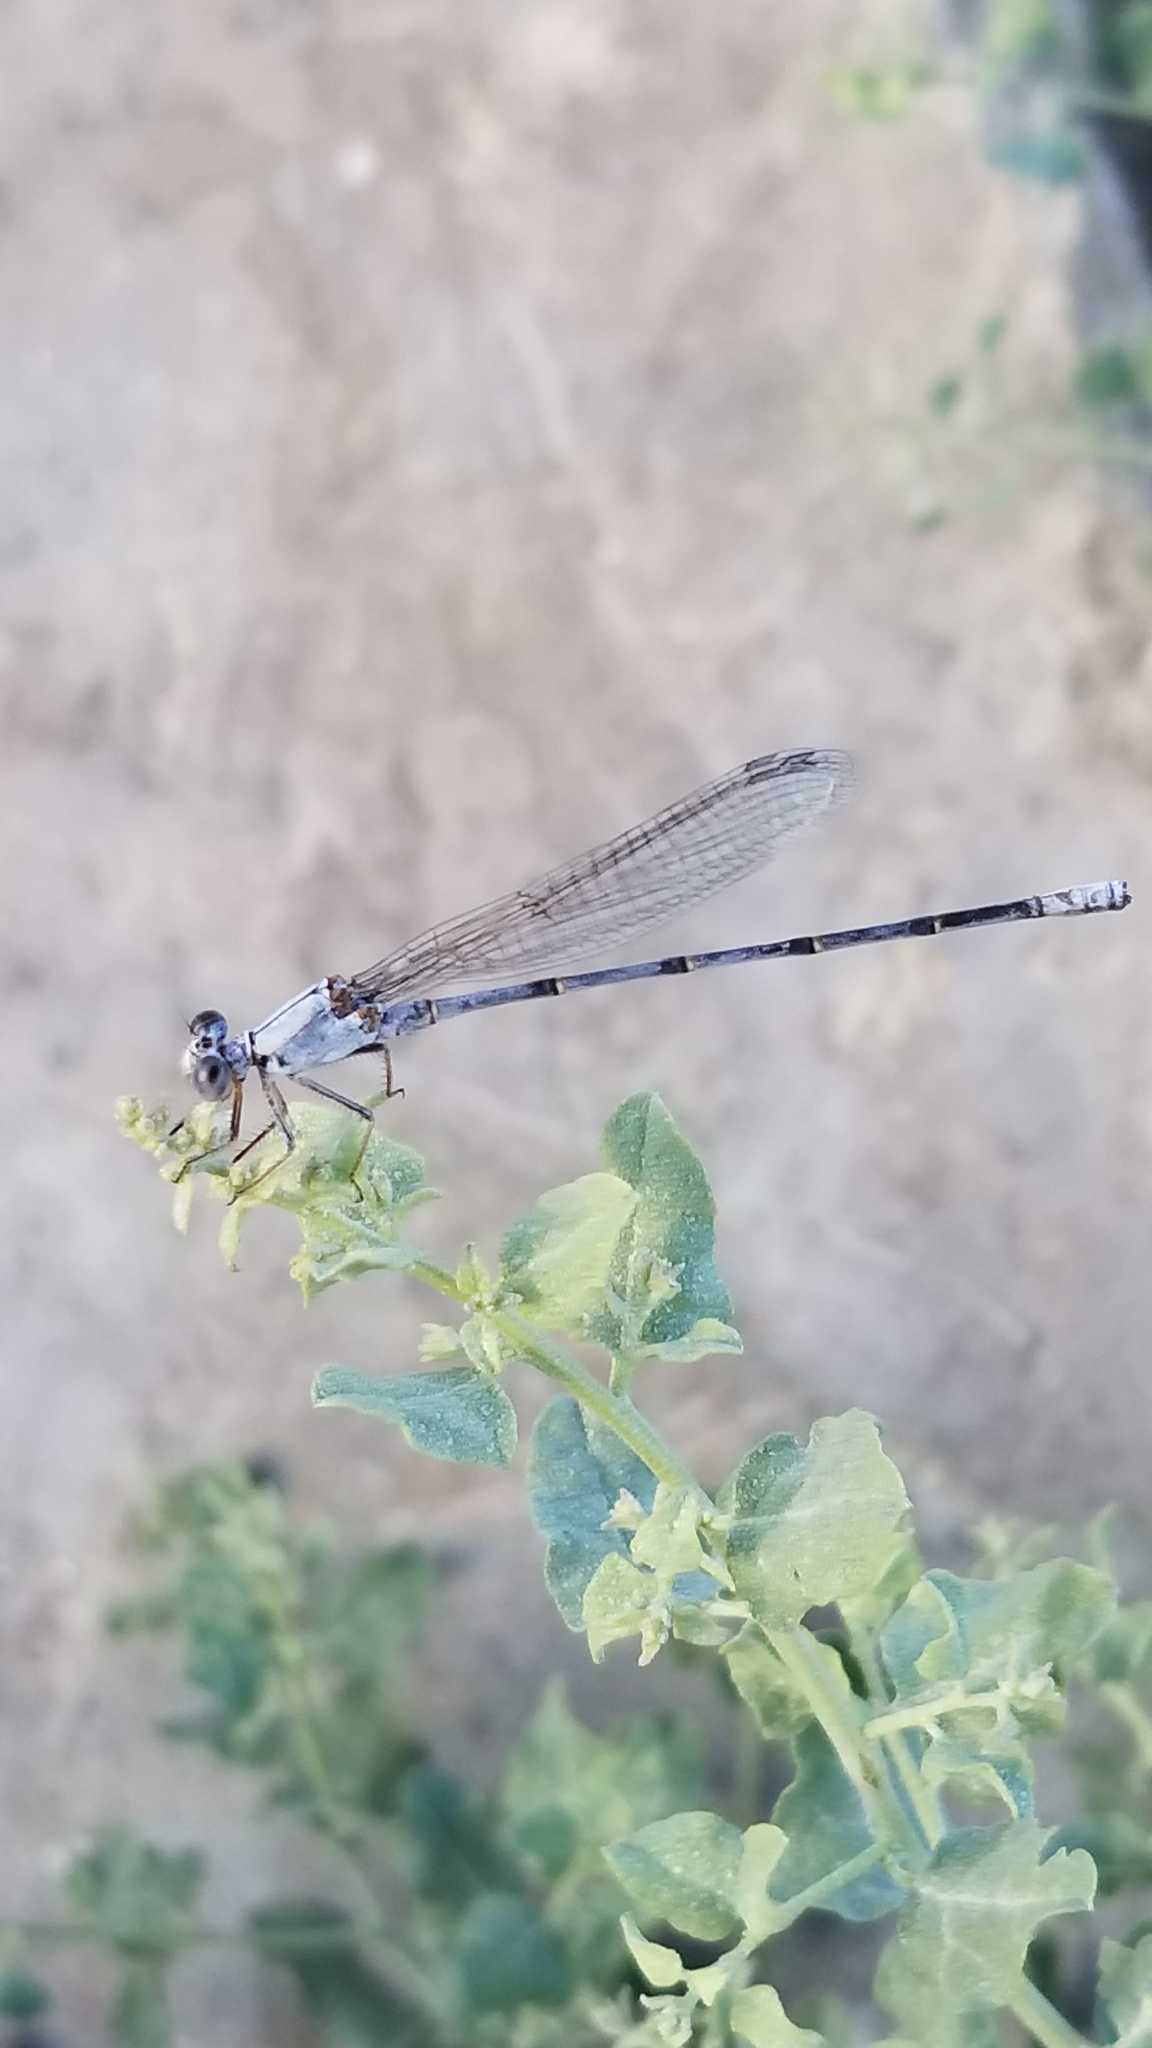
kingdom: Animalia
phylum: Arthropoda
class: Insecta
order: Odonata
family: Coenagrionidae
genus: Argia
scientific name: Argia moesta
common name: Powdered dancer
